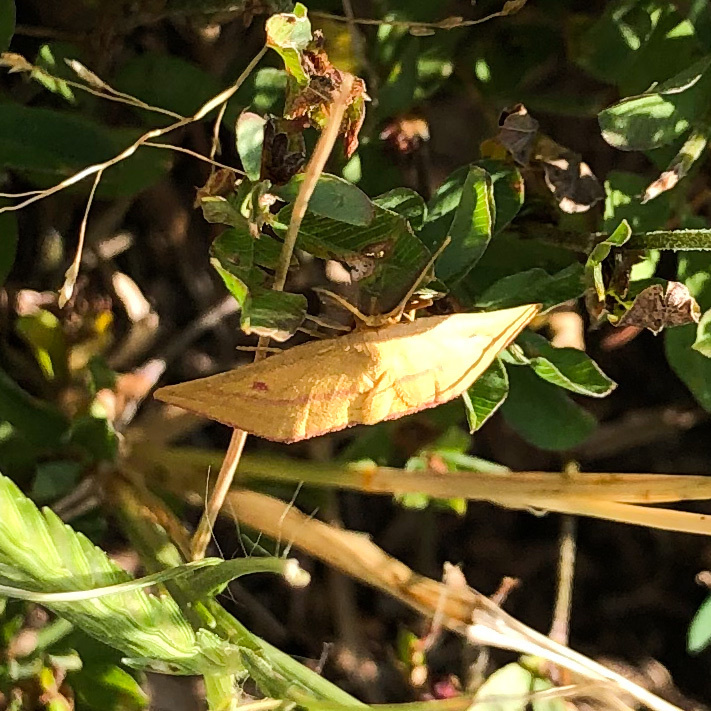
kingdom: Animalia
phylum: Arthropoda
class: Insecta
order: Lepidoptera
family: Geometridae
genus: Haematopis
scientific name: Haematopis grataria
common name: Chickweed geometer
